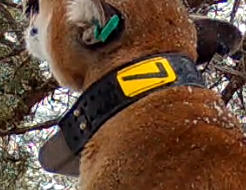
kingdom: Animalia
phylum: Chordata
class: Mammalia
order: Carnivora
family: Felidae
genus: Puma
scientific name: Puma concolor
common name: Puma
